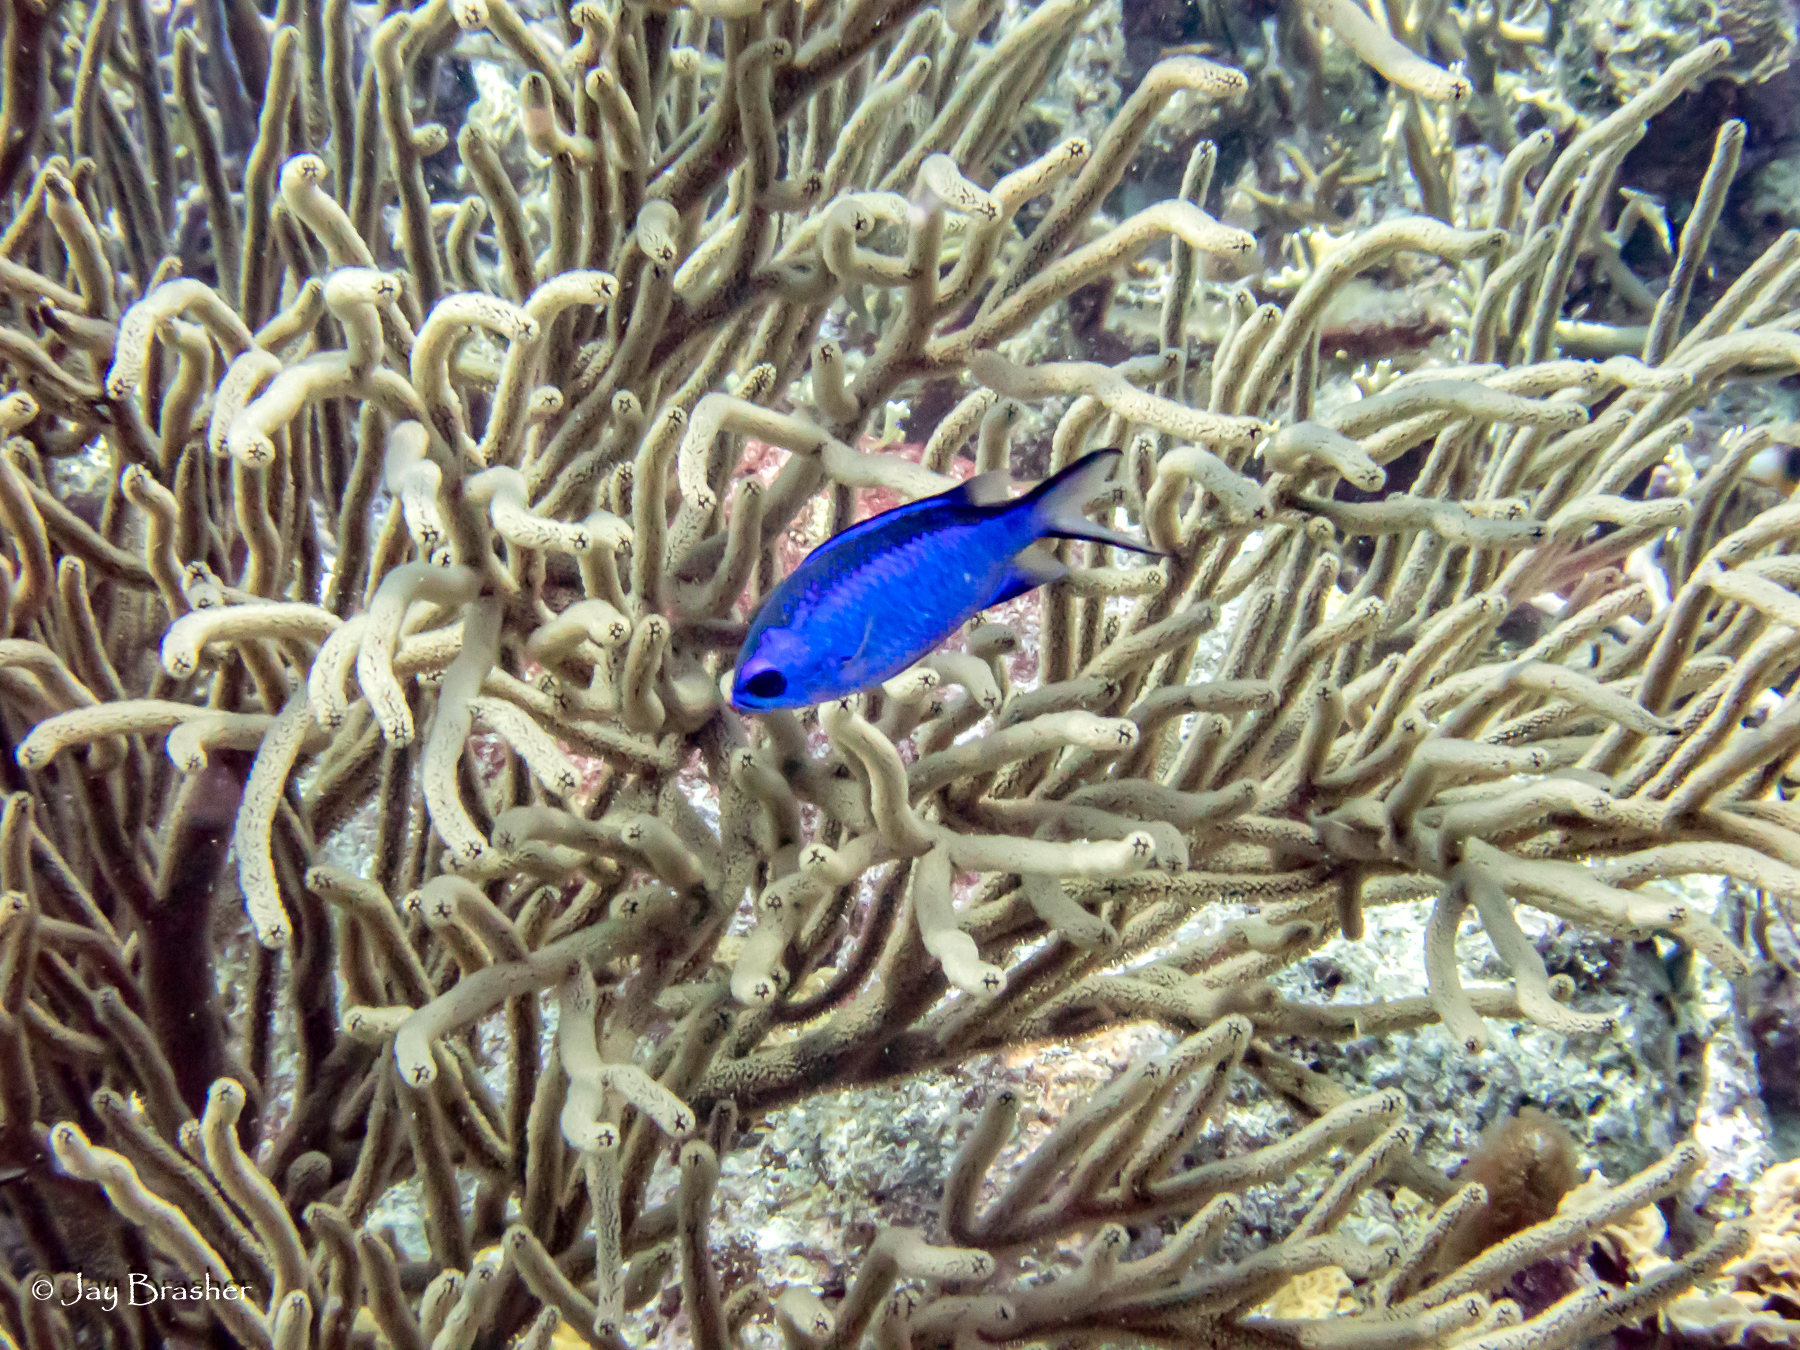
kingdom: Animalia
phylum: Chordata
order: Perciformes
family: Pomacentridae
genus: Chromis
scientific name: Chromis cyanea
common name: Blue chromis
